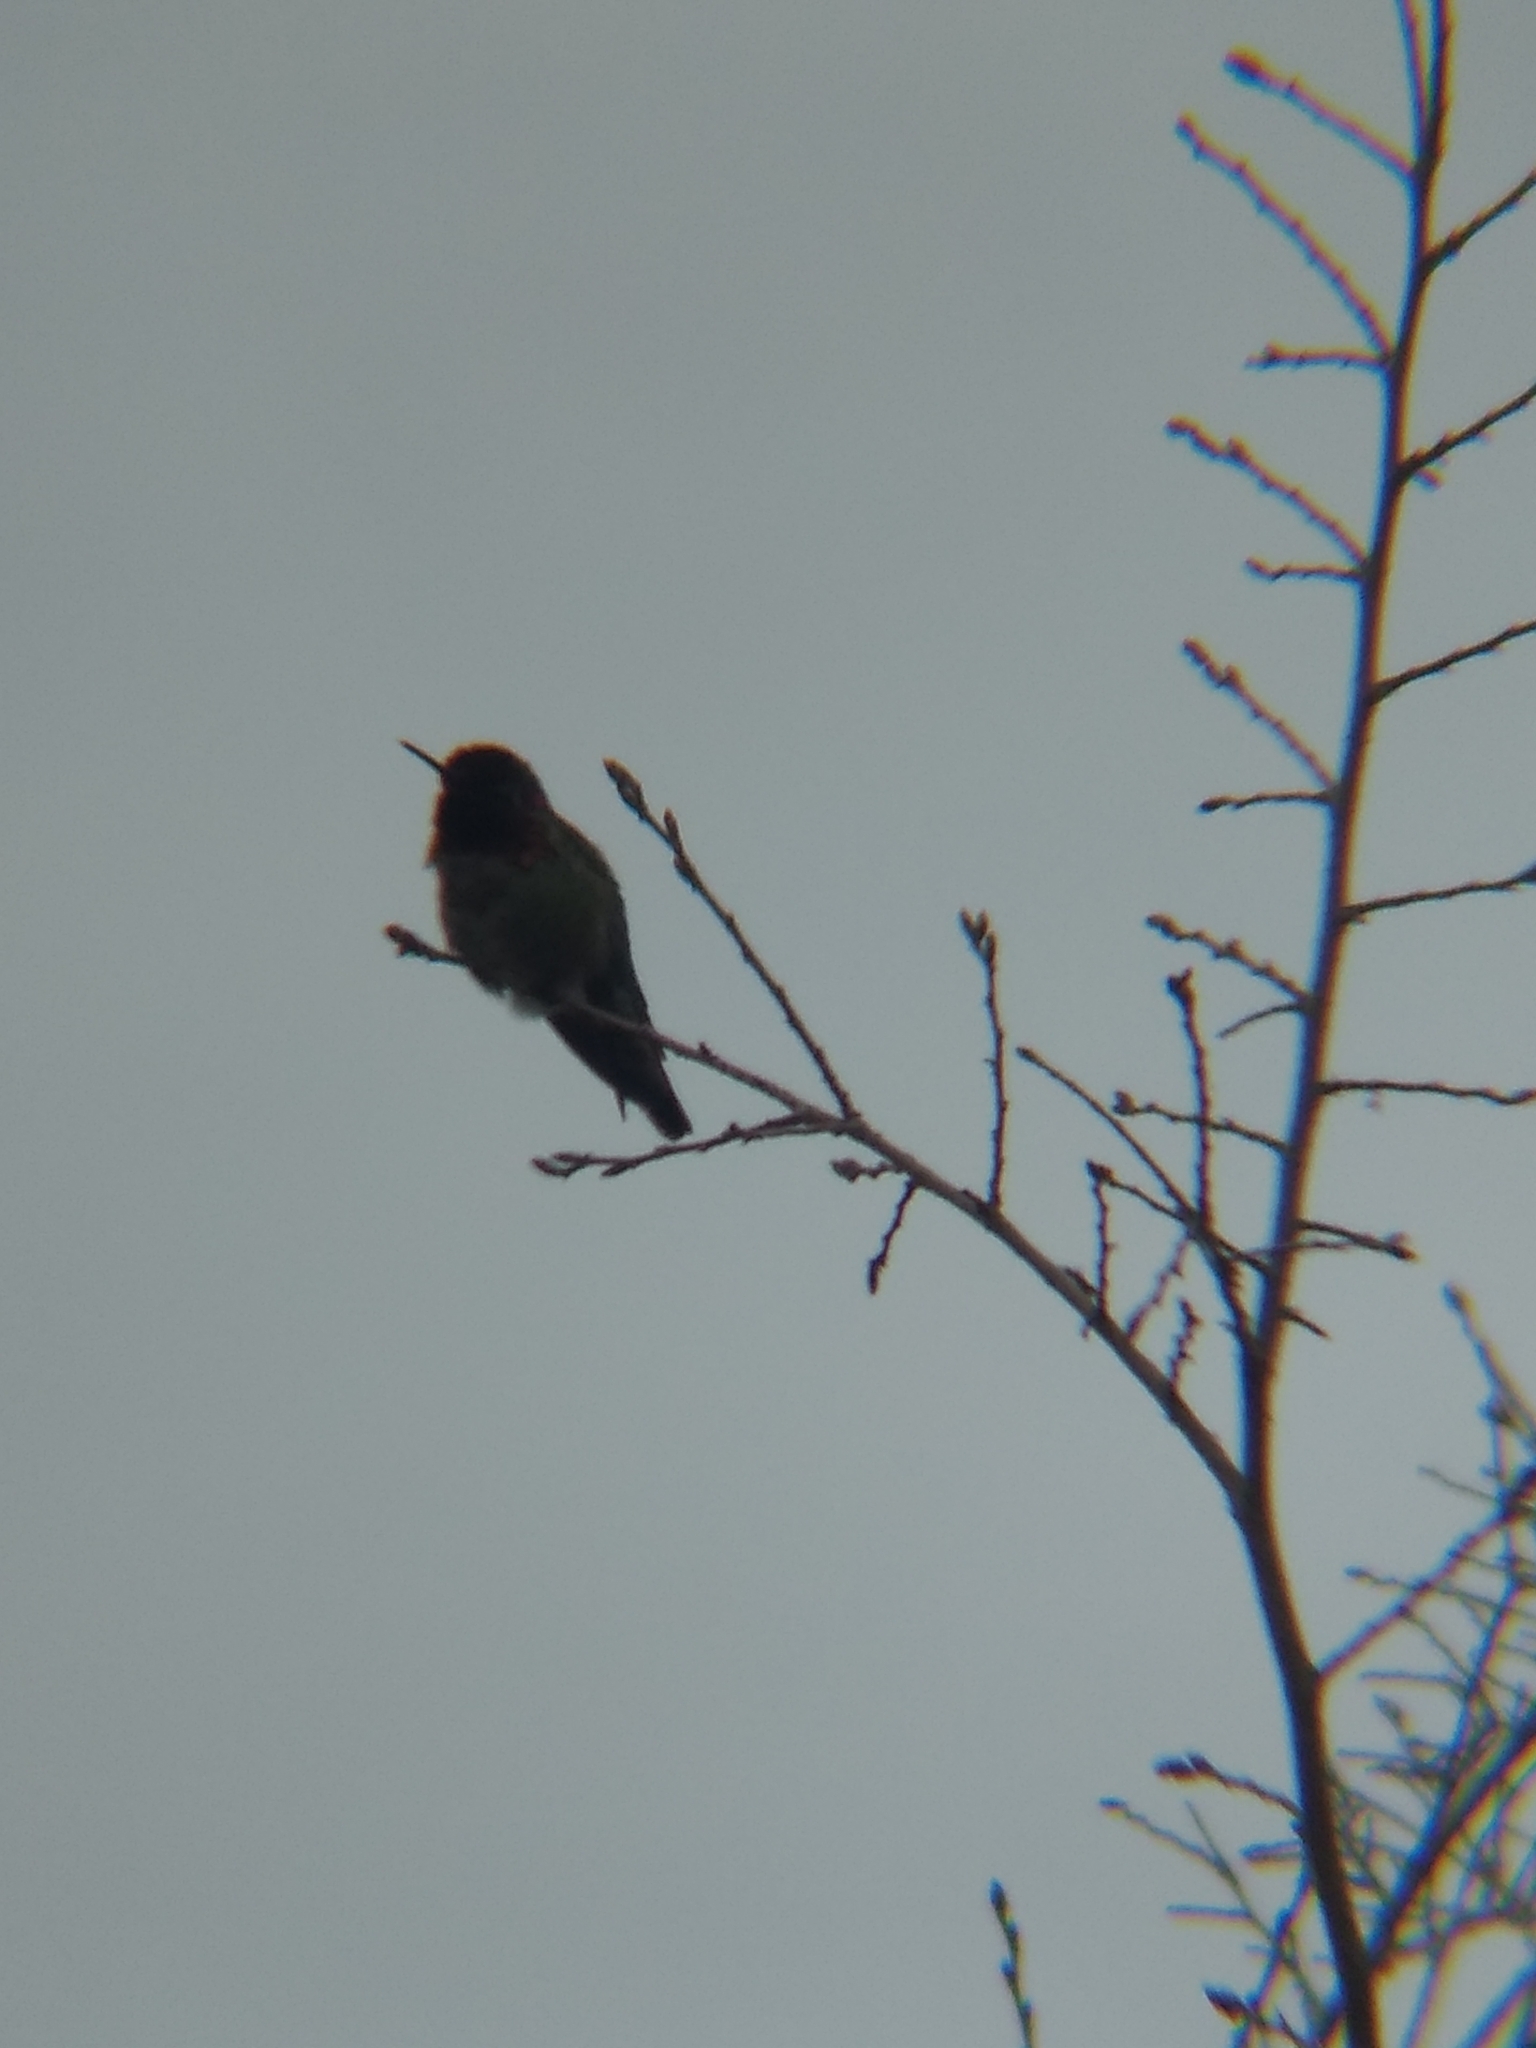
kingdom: Animalia
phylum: Chordata
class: Aves
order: Apodiformes
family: Trochilidae
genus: Calypte
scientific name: Calypte anna
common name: Anna's hummingbird
